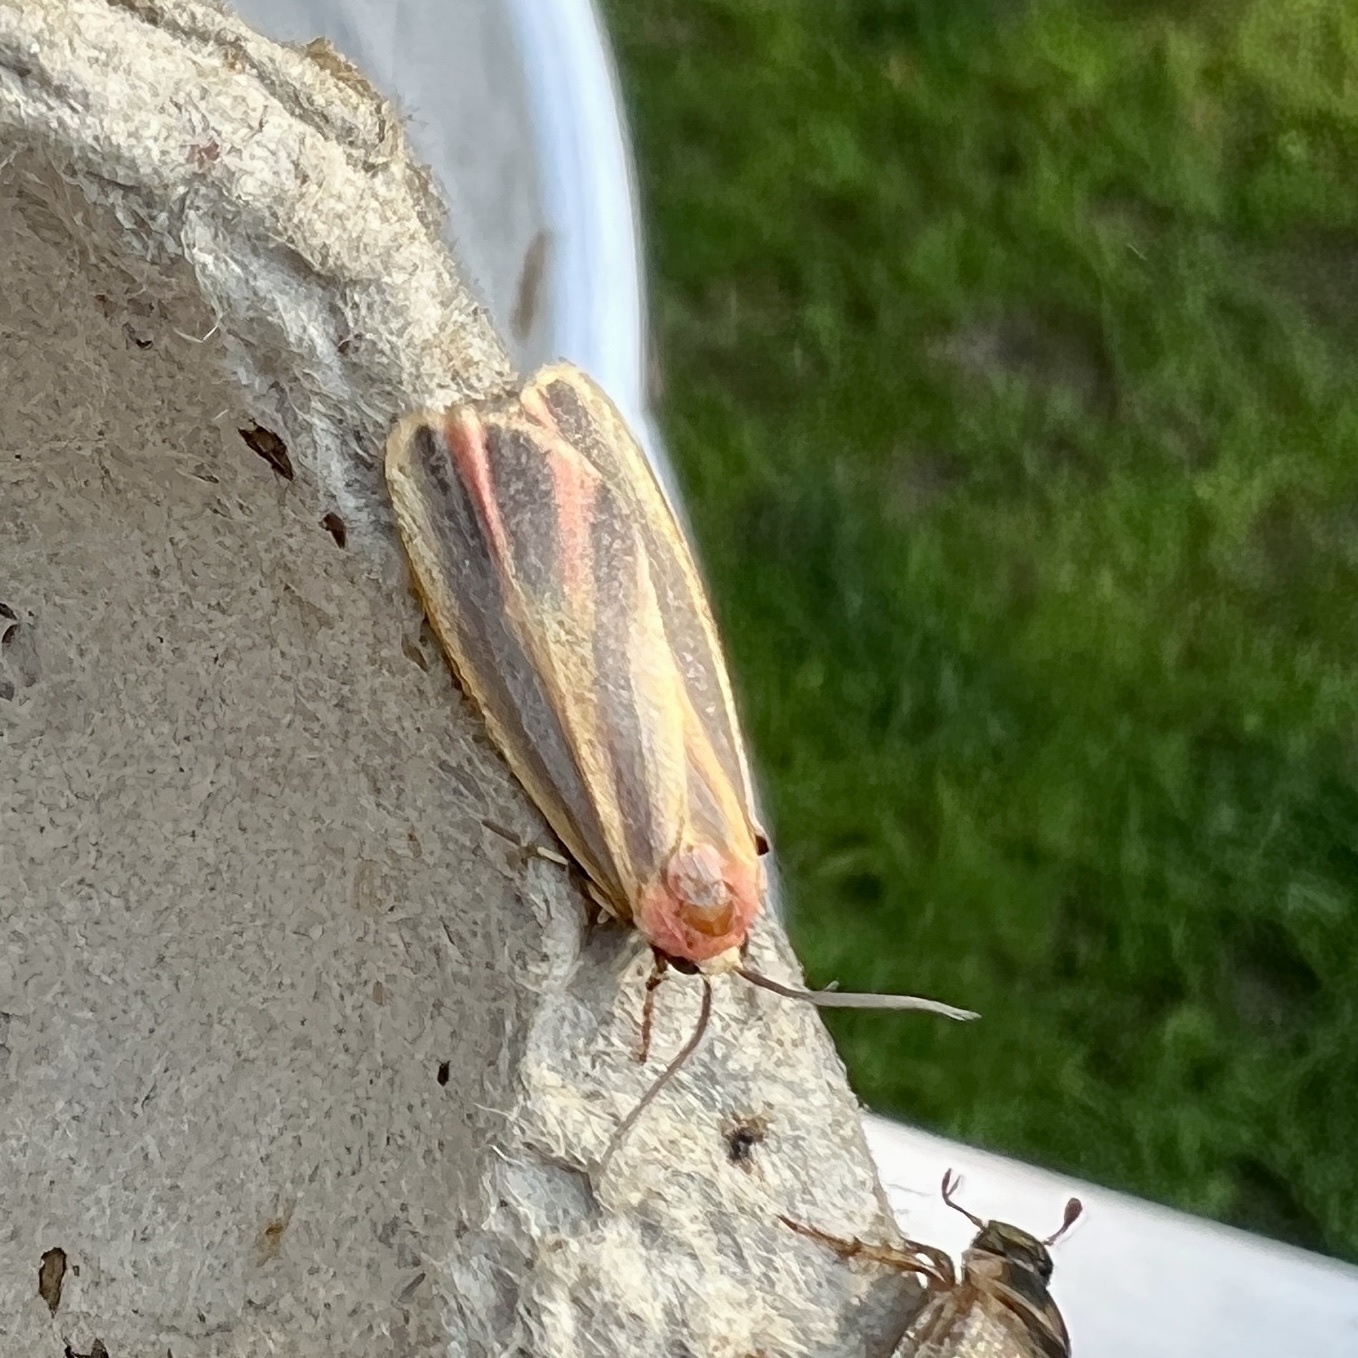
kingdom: Animalia
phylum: Arthropoda
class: Insecta
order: Lepidoptera
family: Erebidae
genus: Hypoprepia
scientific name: Hypoprepia fucosa
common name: Painted lichen moth
